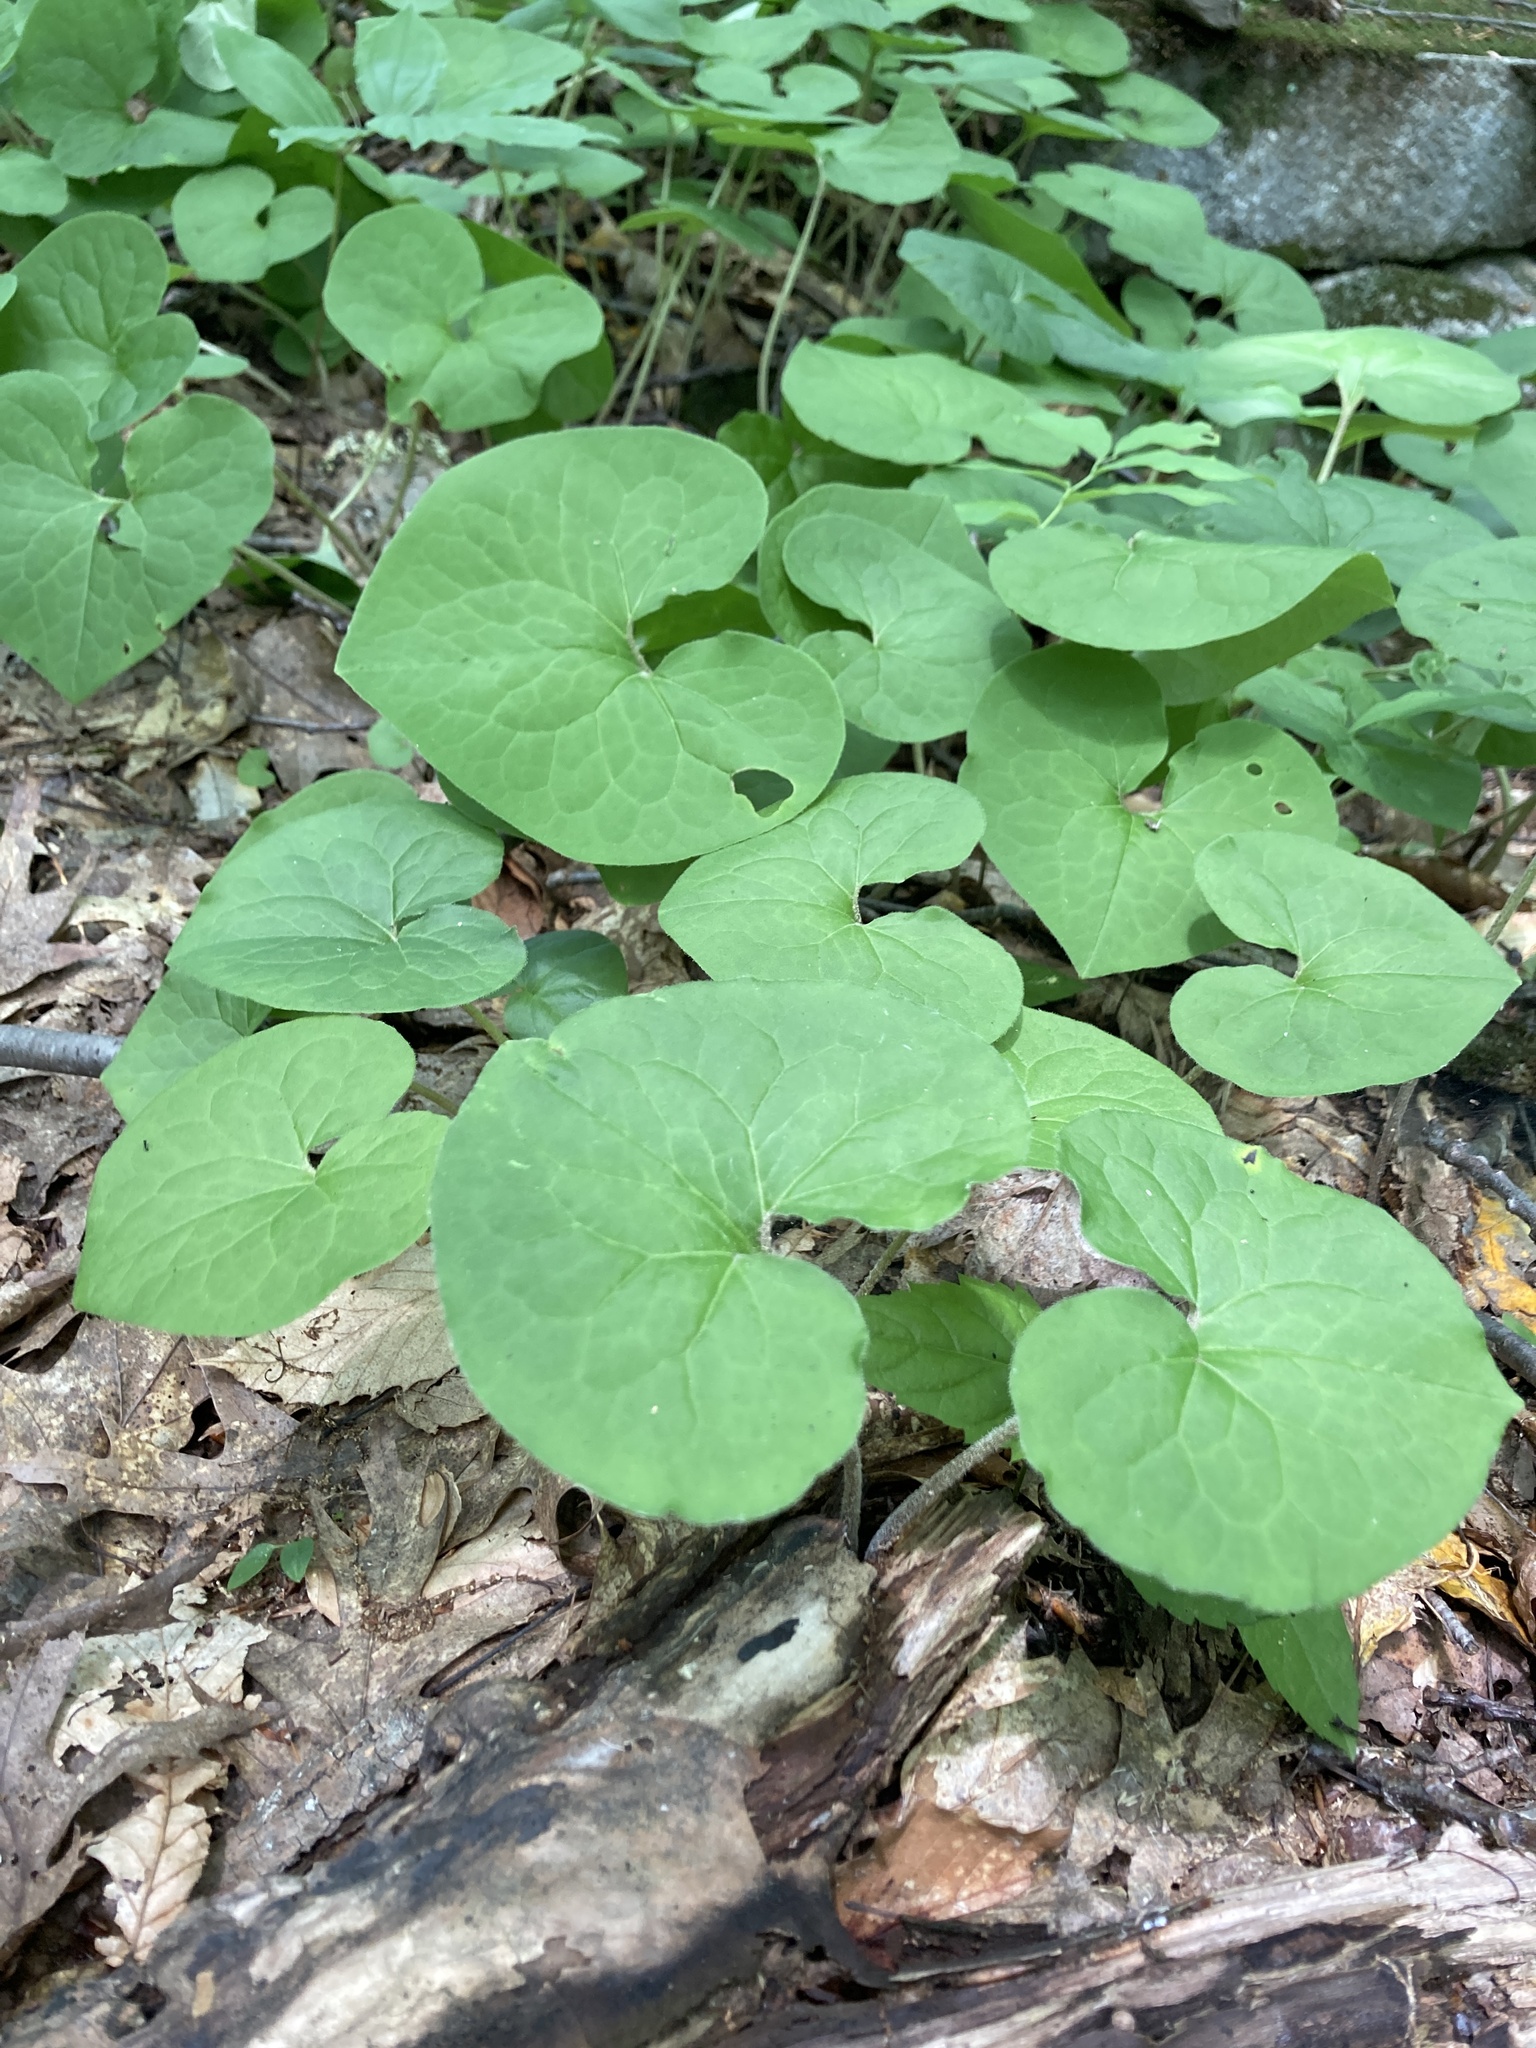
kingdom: Plantae
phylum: Tracheophyta
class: Magnoliopsida
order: Piperales
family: Aristolochiaceae
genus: Asarum
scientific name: Asarum canadense
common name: Wild ginger
